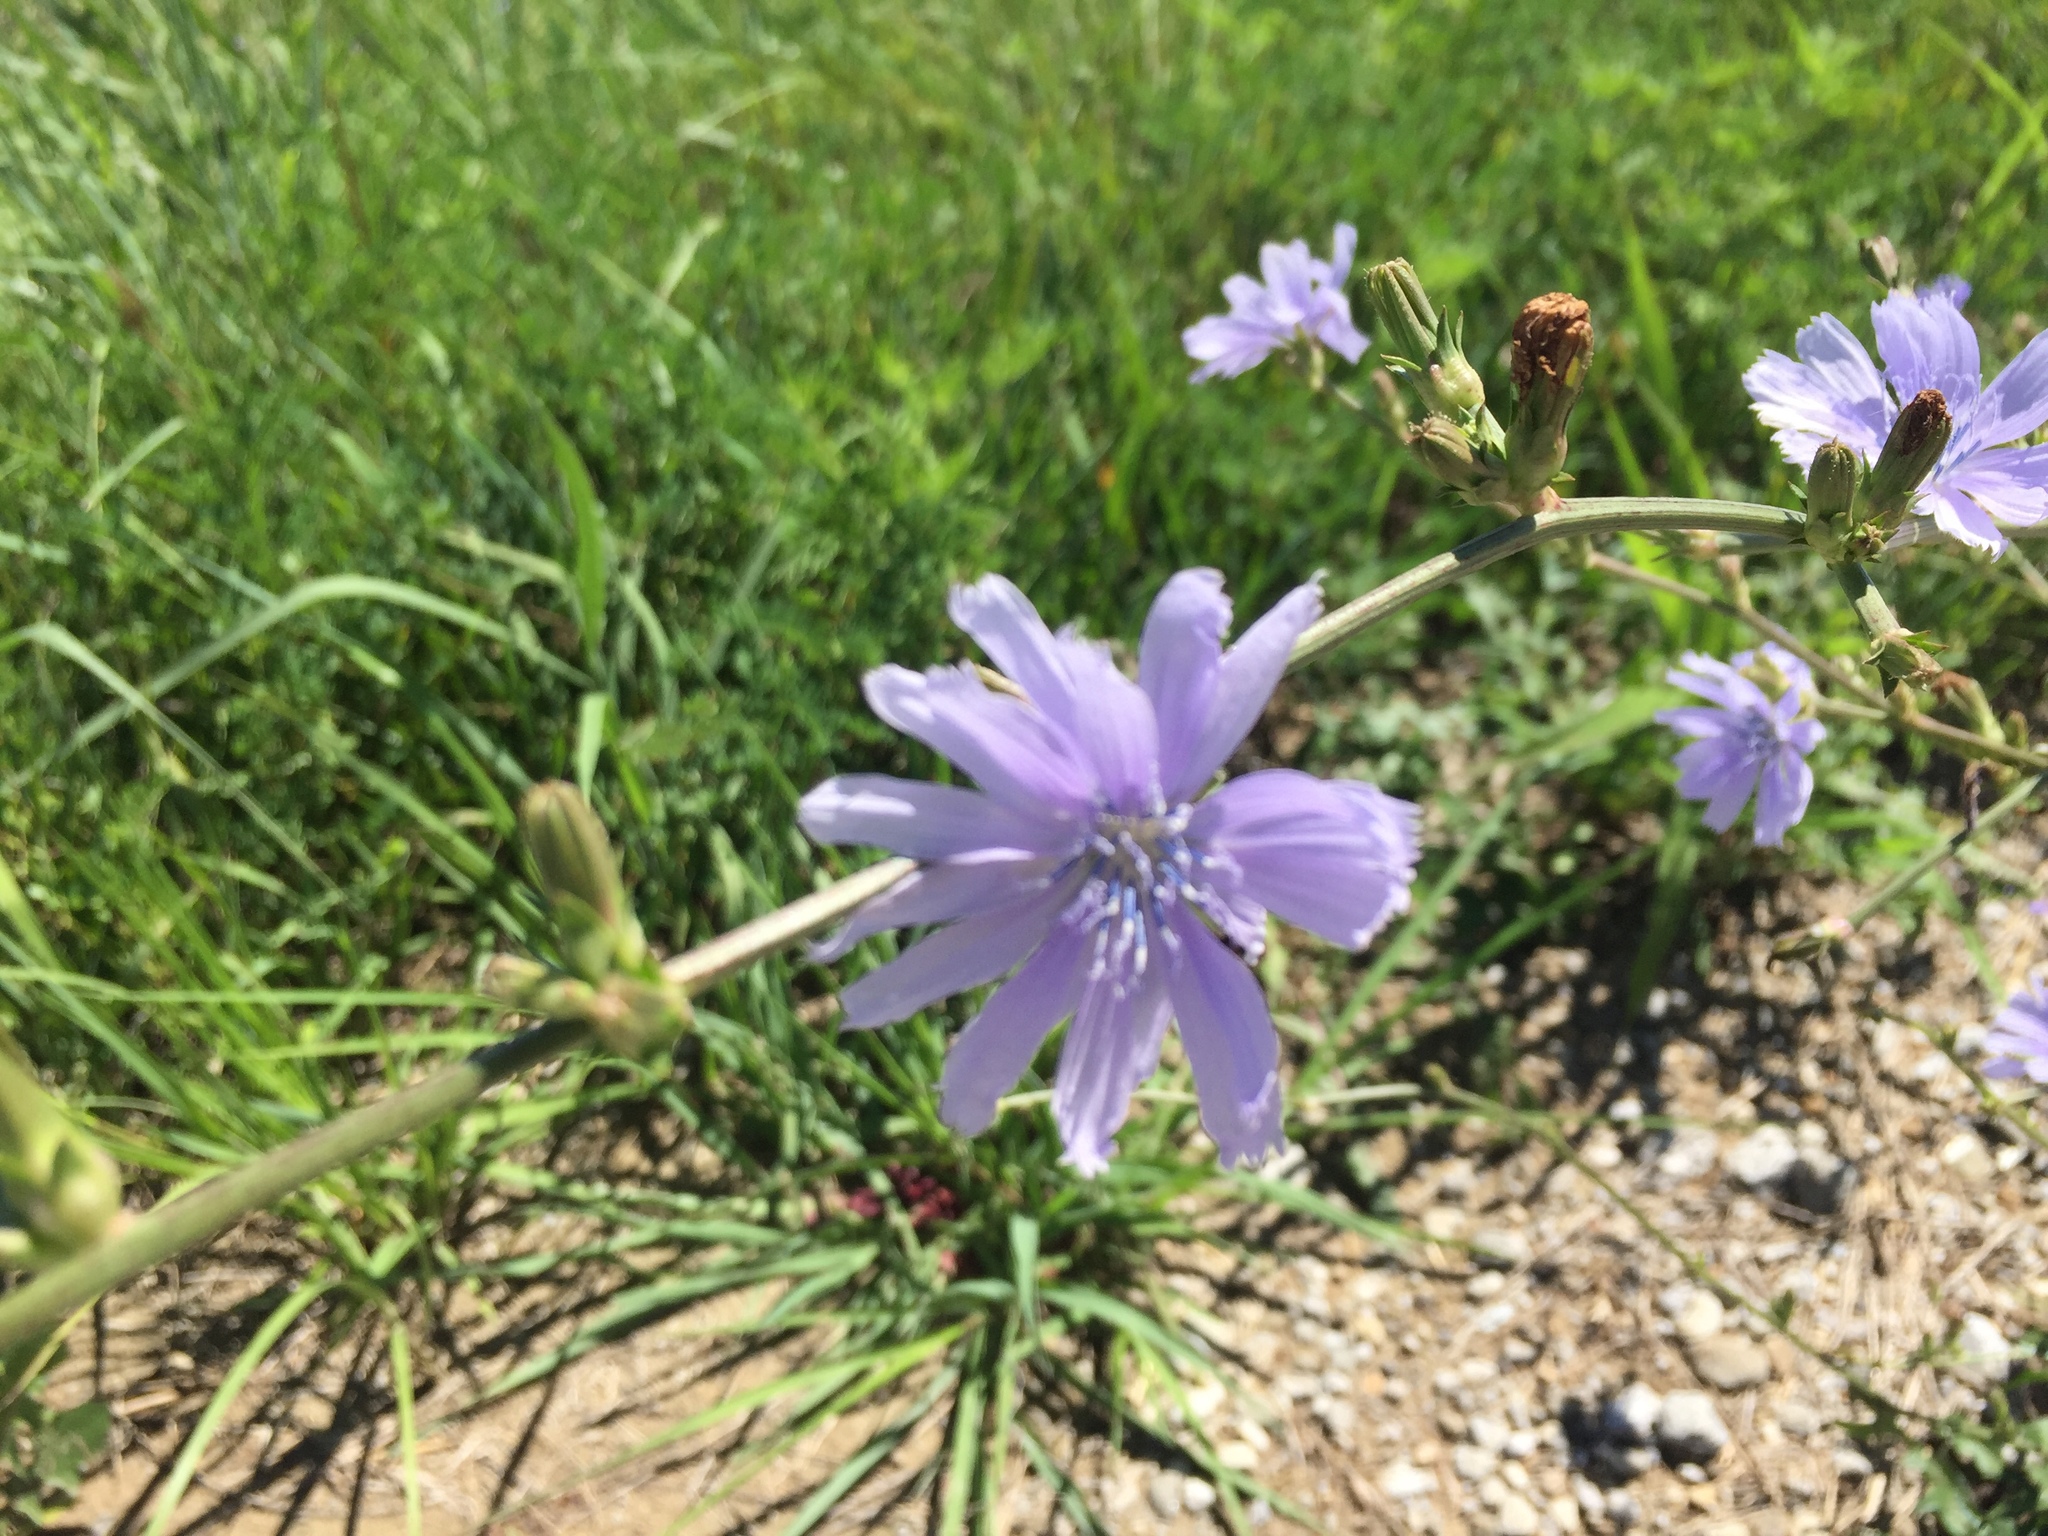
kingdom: Plantae
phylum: Tracheophyta
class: Magnoliopsida
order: Asterales
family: Asteraceae
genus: Cichorium
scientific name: Cichorium intybus
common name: Chicory
